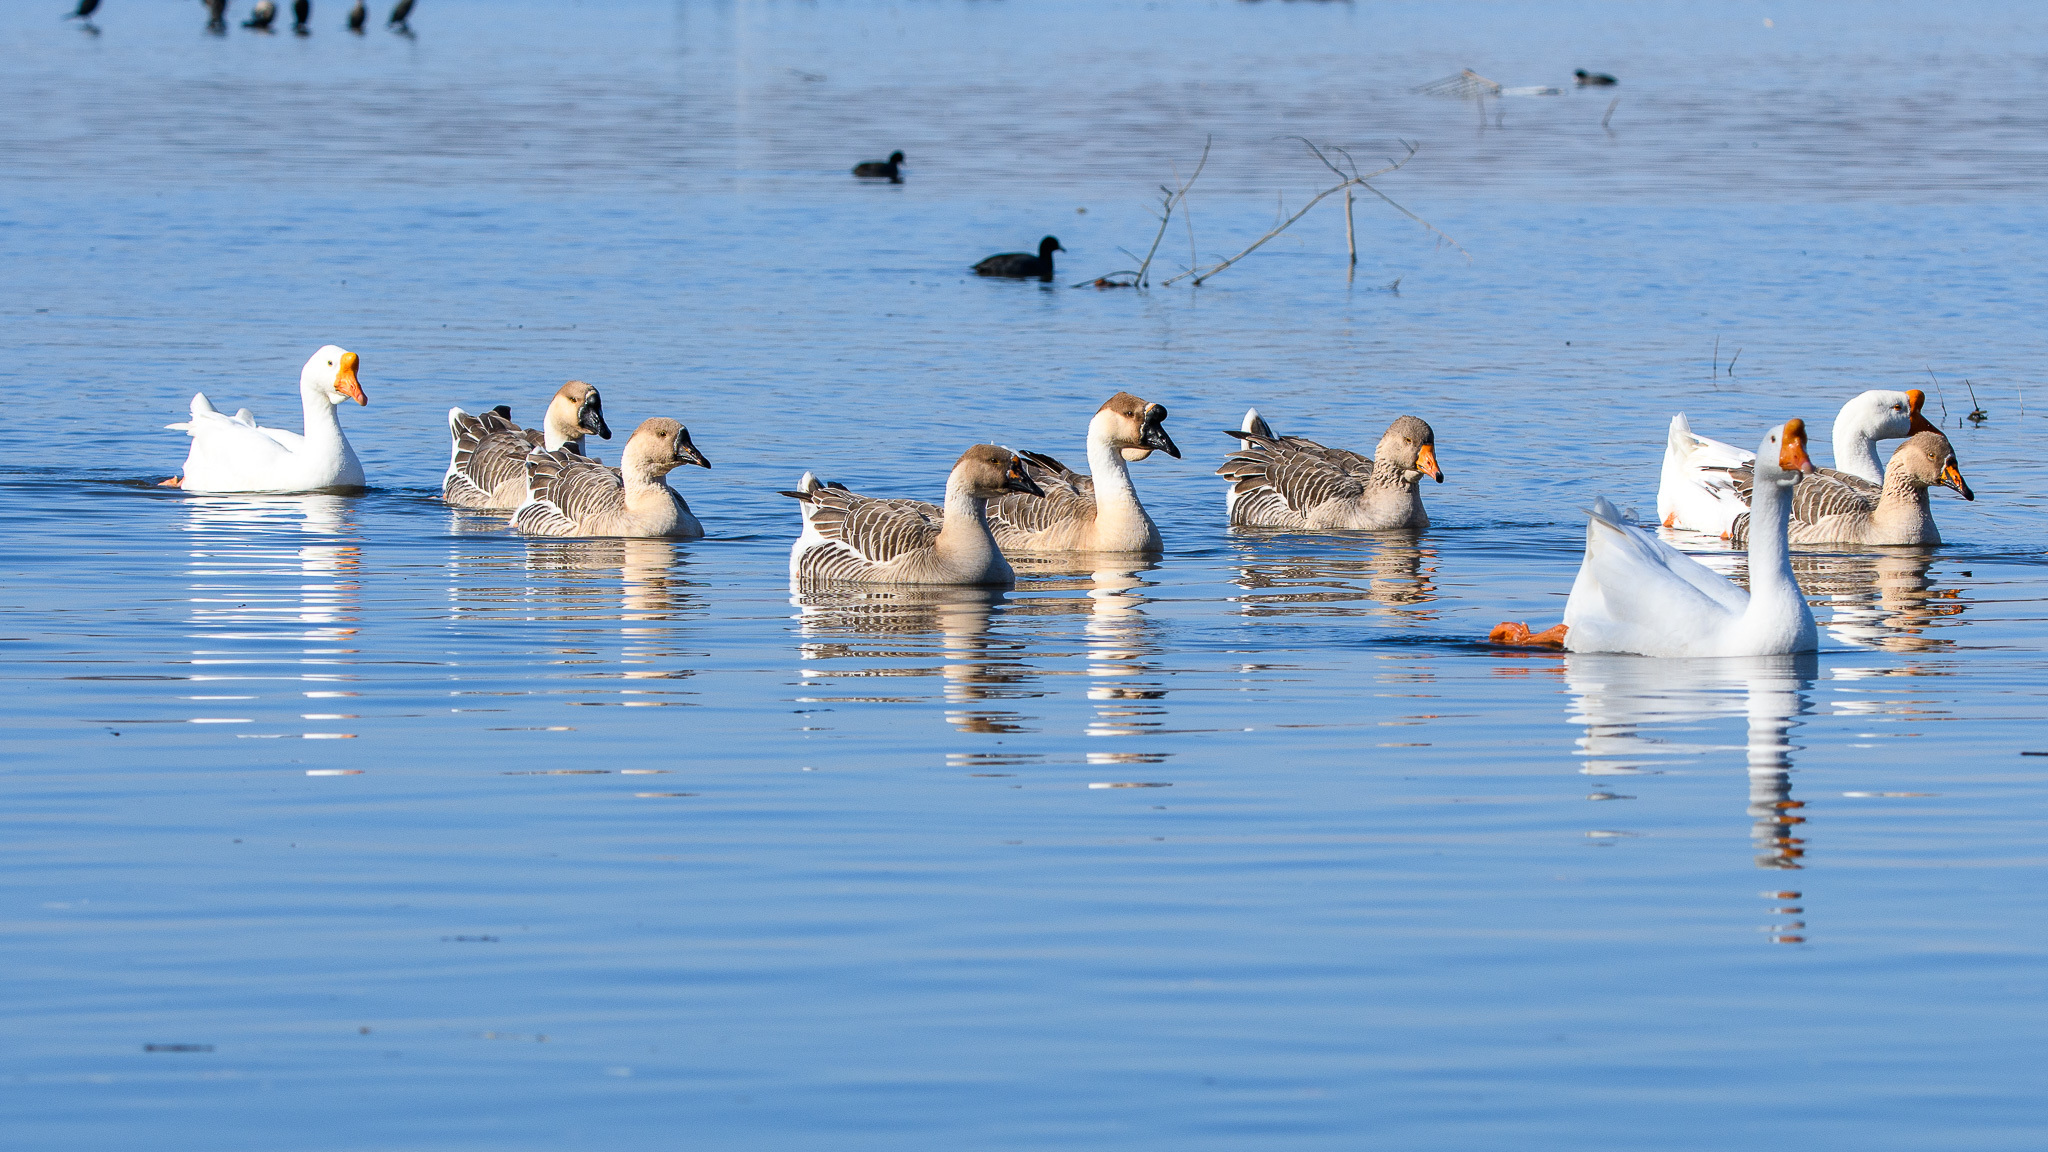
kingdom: Animalia
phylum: Chordata
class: Aves
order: Anseriformes
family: Anatidae
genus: Anser
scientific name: Anser cygnoides
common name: Swan goose
